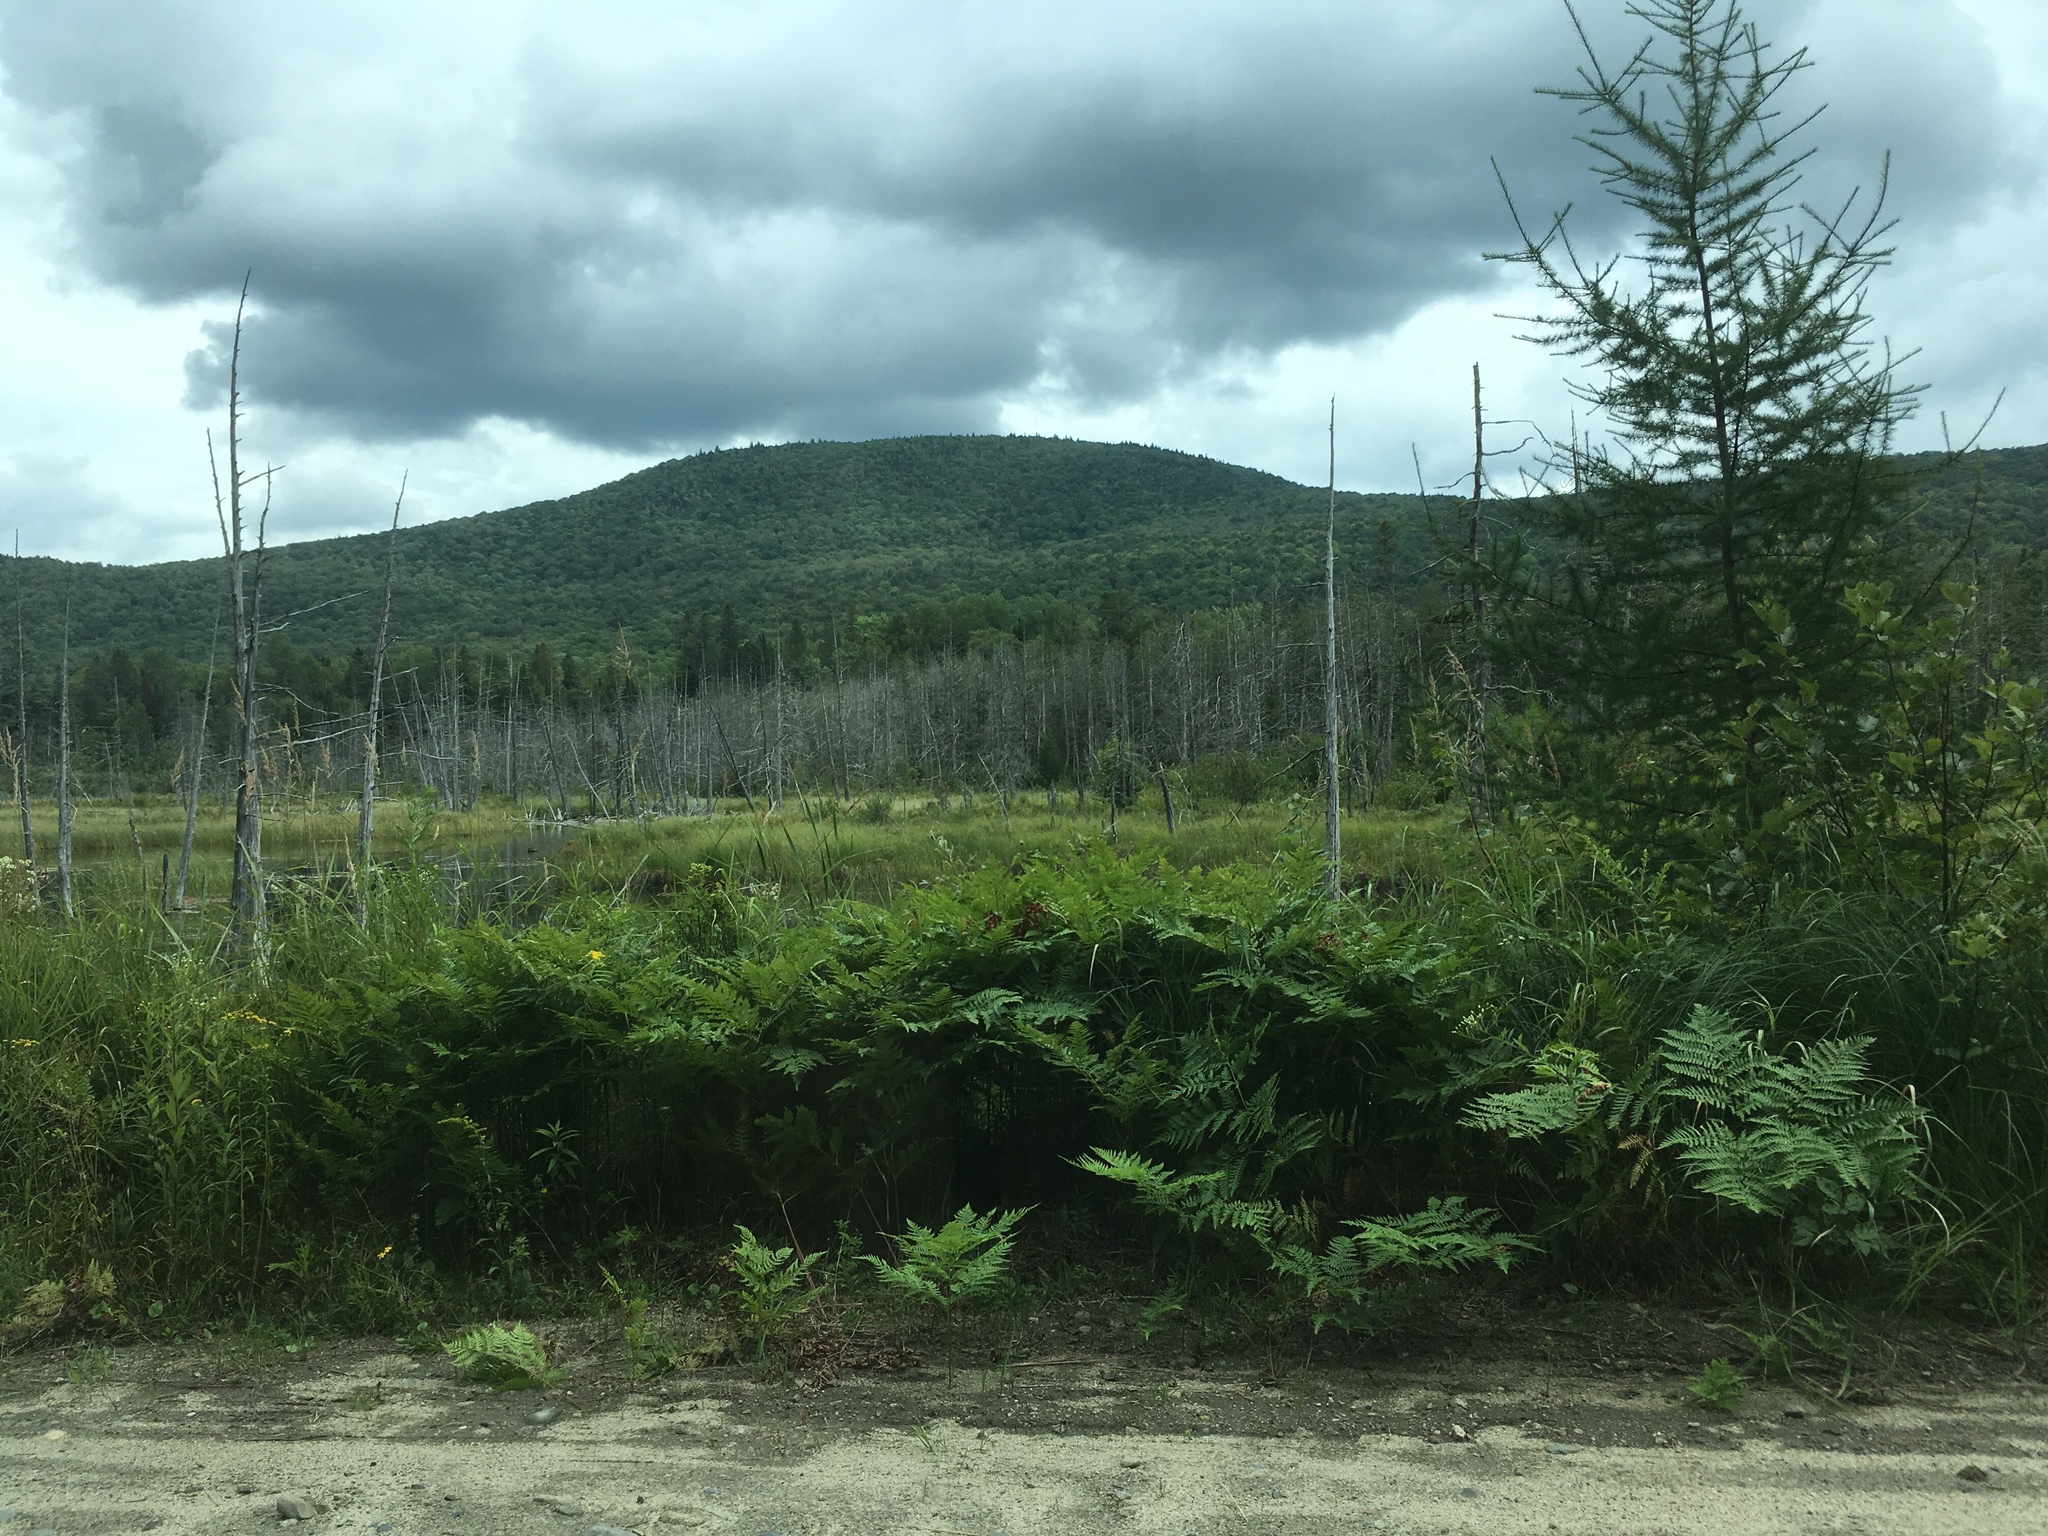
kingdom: Plantae
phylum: Tracheophyta
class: Polypodiopsida
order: Polypodiales
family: Dennstaedtiaceae
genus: Pteridium
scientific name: Pteridium aquilinum
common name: Bracken
